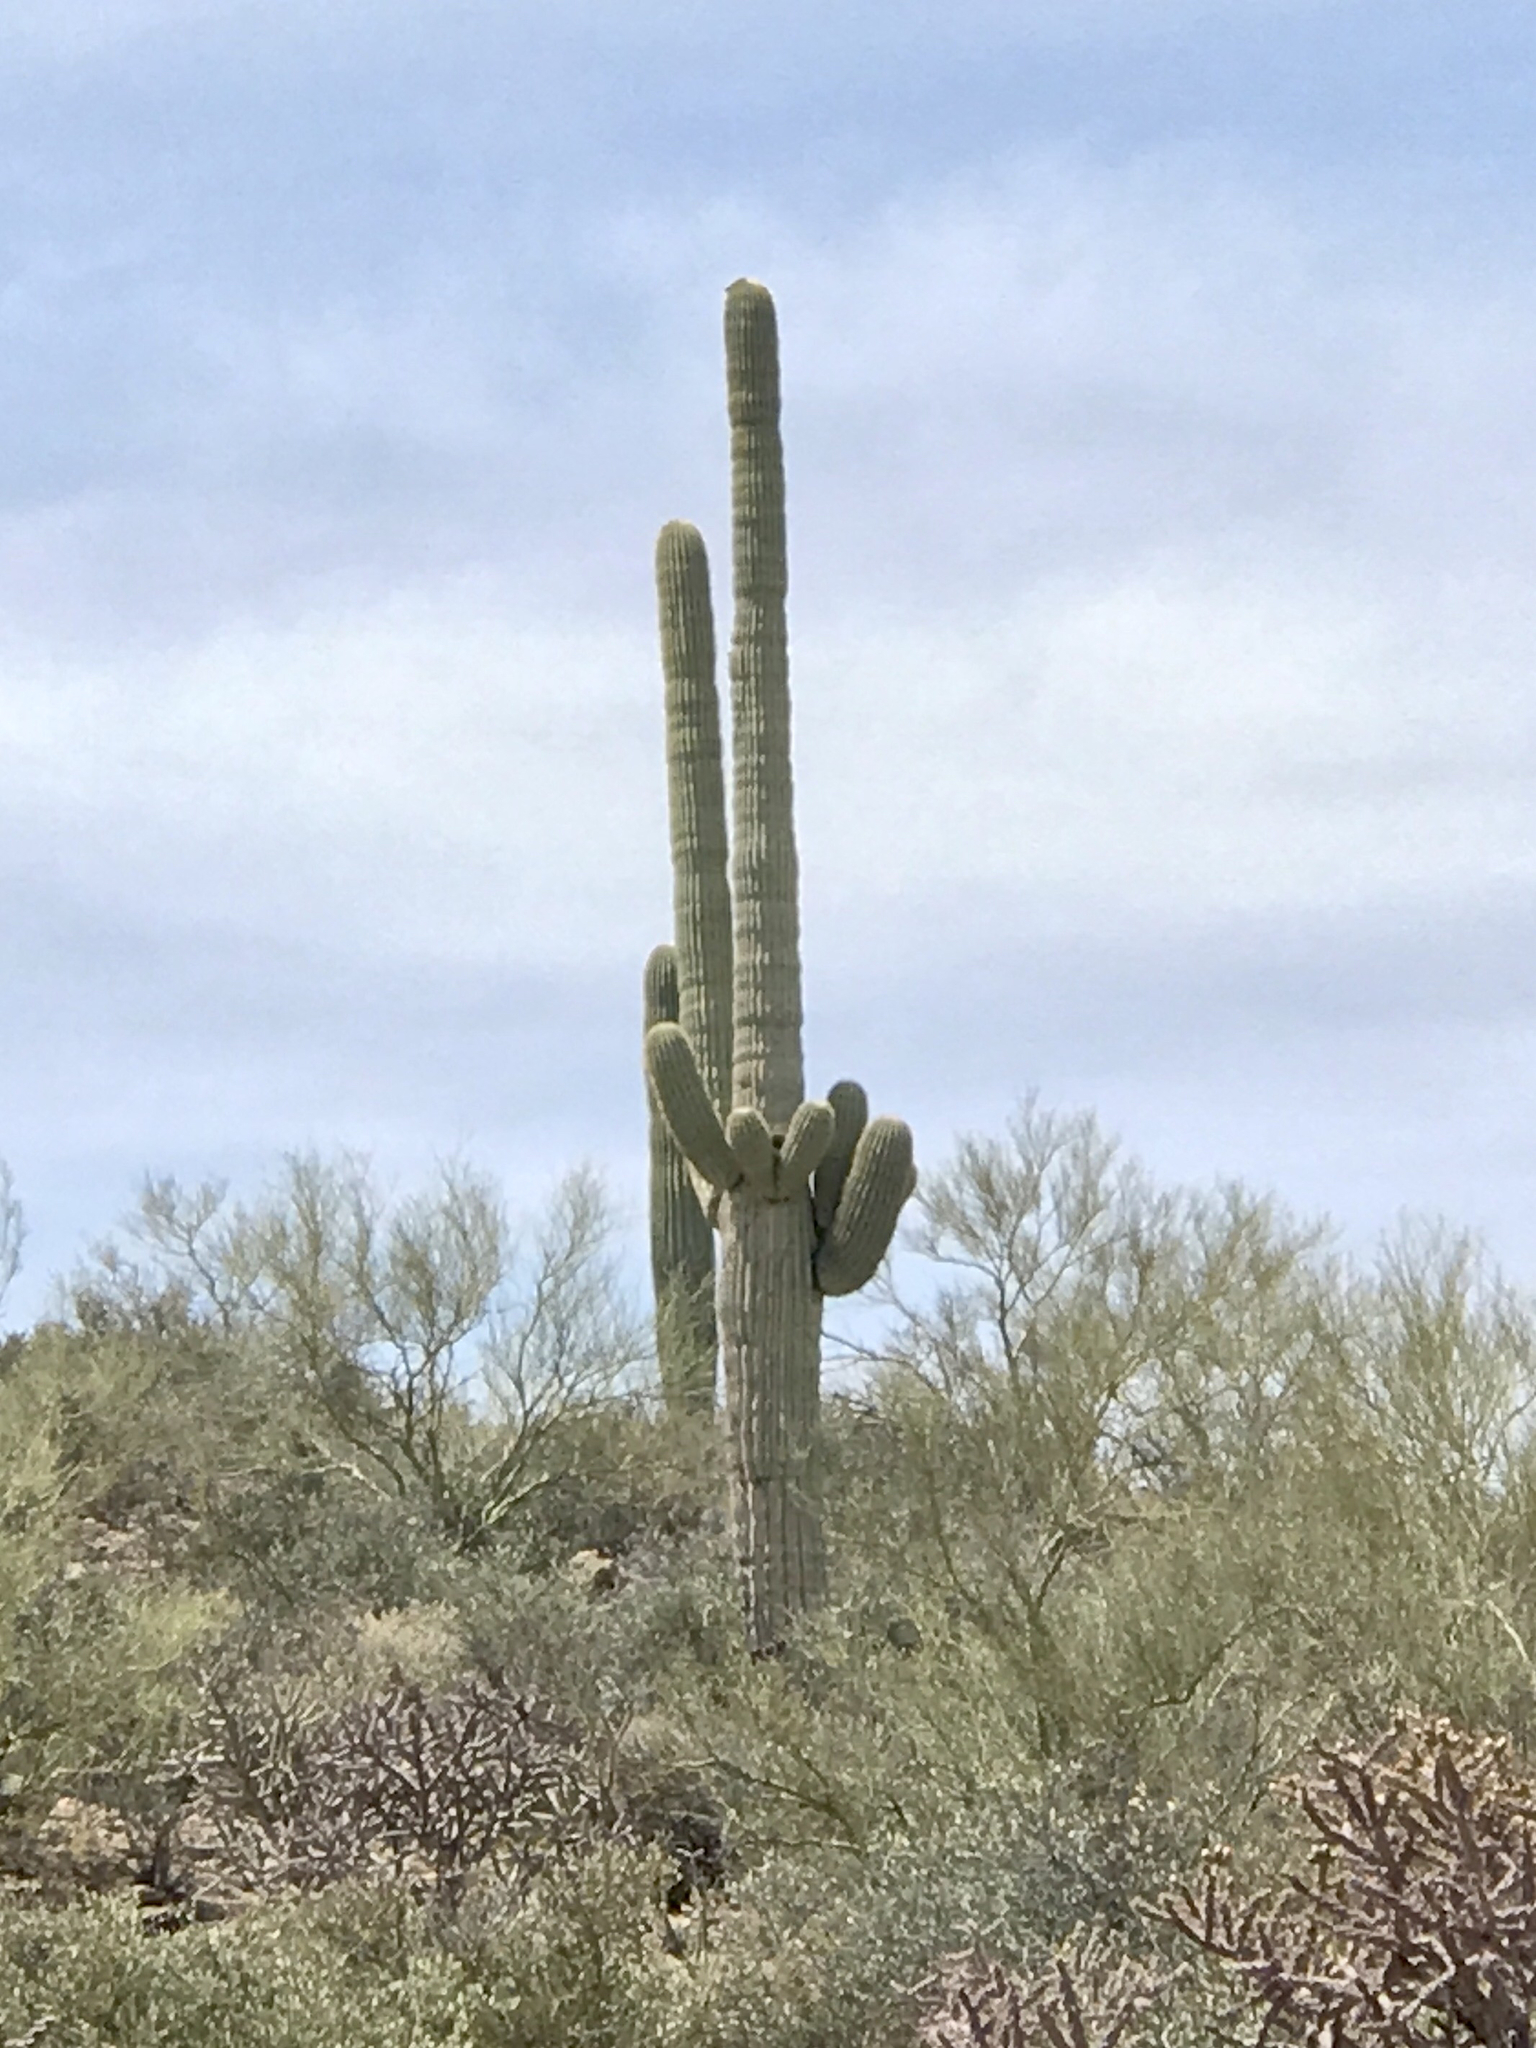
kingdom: Plantae
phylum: Tracheophyta
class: Magnoliopsida
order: Caryophyllales
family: Cactaceae
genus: Carnegiea
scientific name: Carnegiea gigantea
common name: Saguaro
